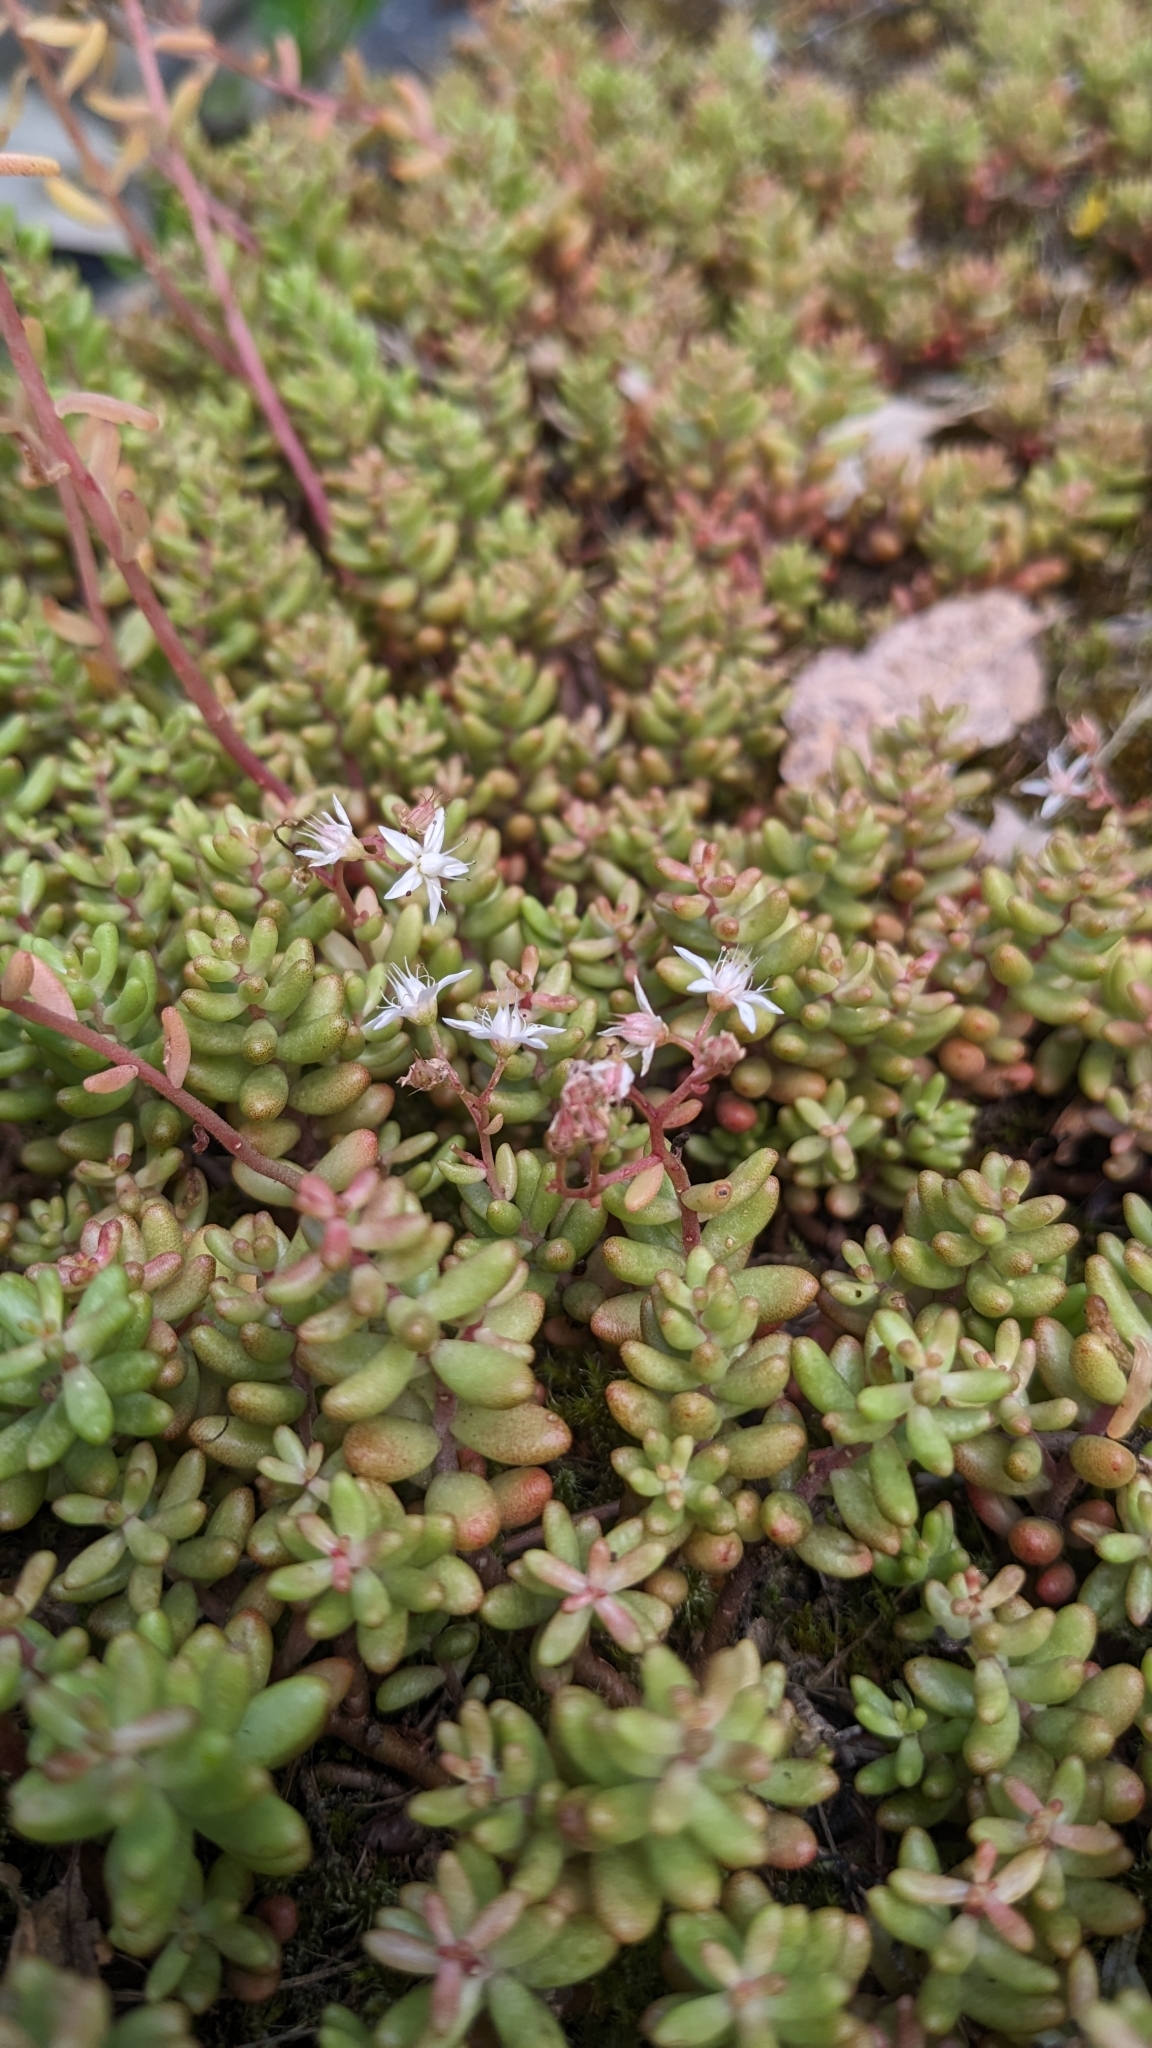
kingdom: Plantae
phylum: Tracheophyta
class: Magnoliopsida
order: Saxifragales
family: Crassulaceae
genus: Sedum
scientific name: Sedum album
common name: White stonecrop
